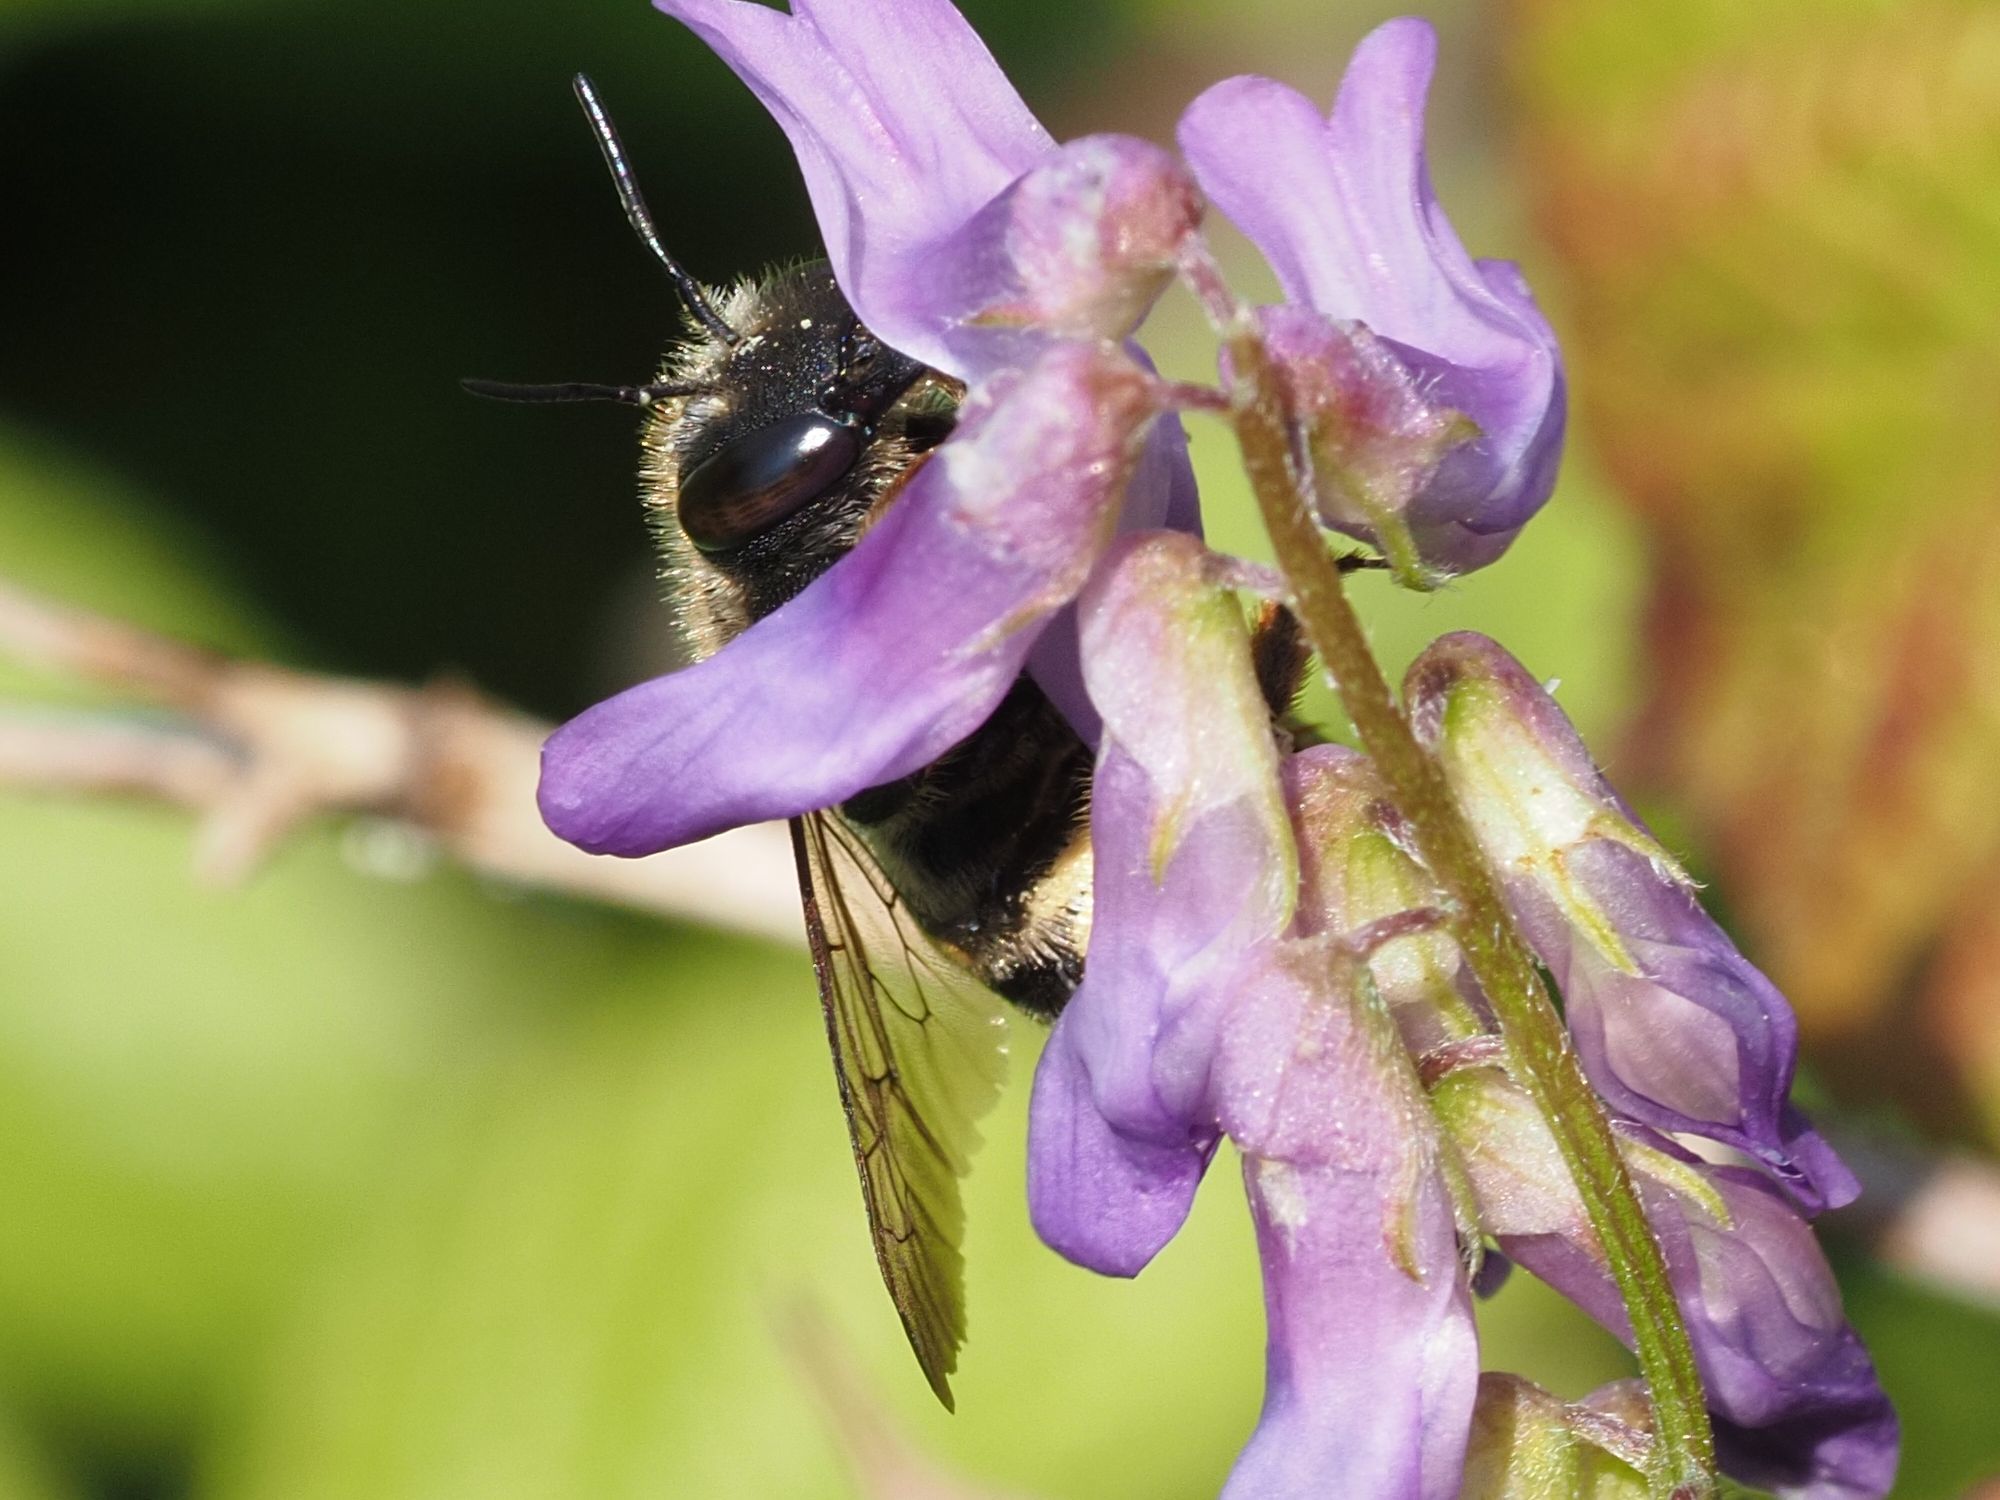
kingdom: Animalia
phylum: Arthropoda
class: Insecta
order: Hymenoptera
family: Megachilidae
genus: Anthidium
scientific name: Anthidium septemspinosum
